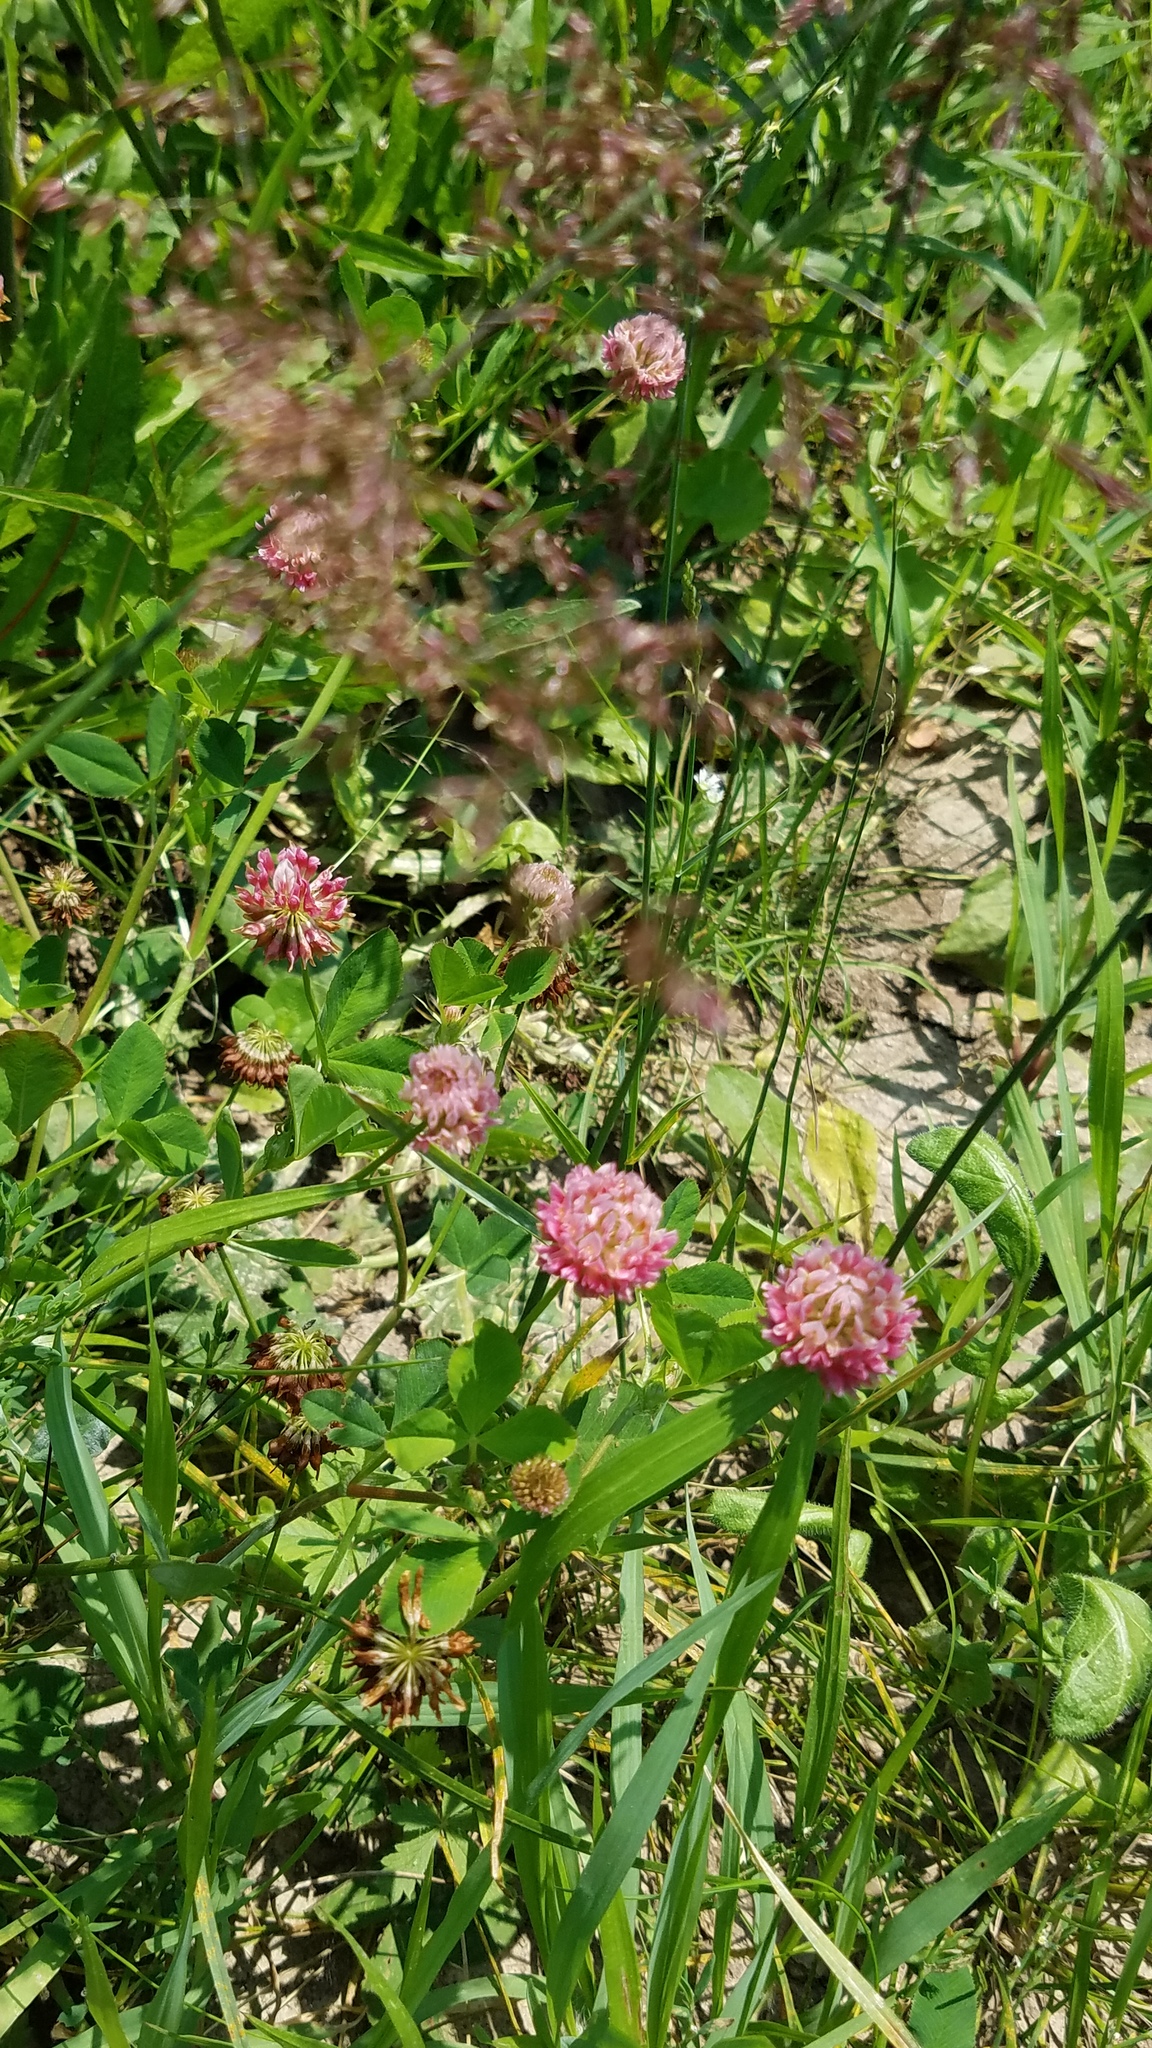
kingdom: Plantae
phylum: Tracheophyta
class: Magnoliopsida
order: Fabales
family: Fabaceae
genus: Trifolium
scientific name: Trifolium hybridum
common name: Alsike clover
